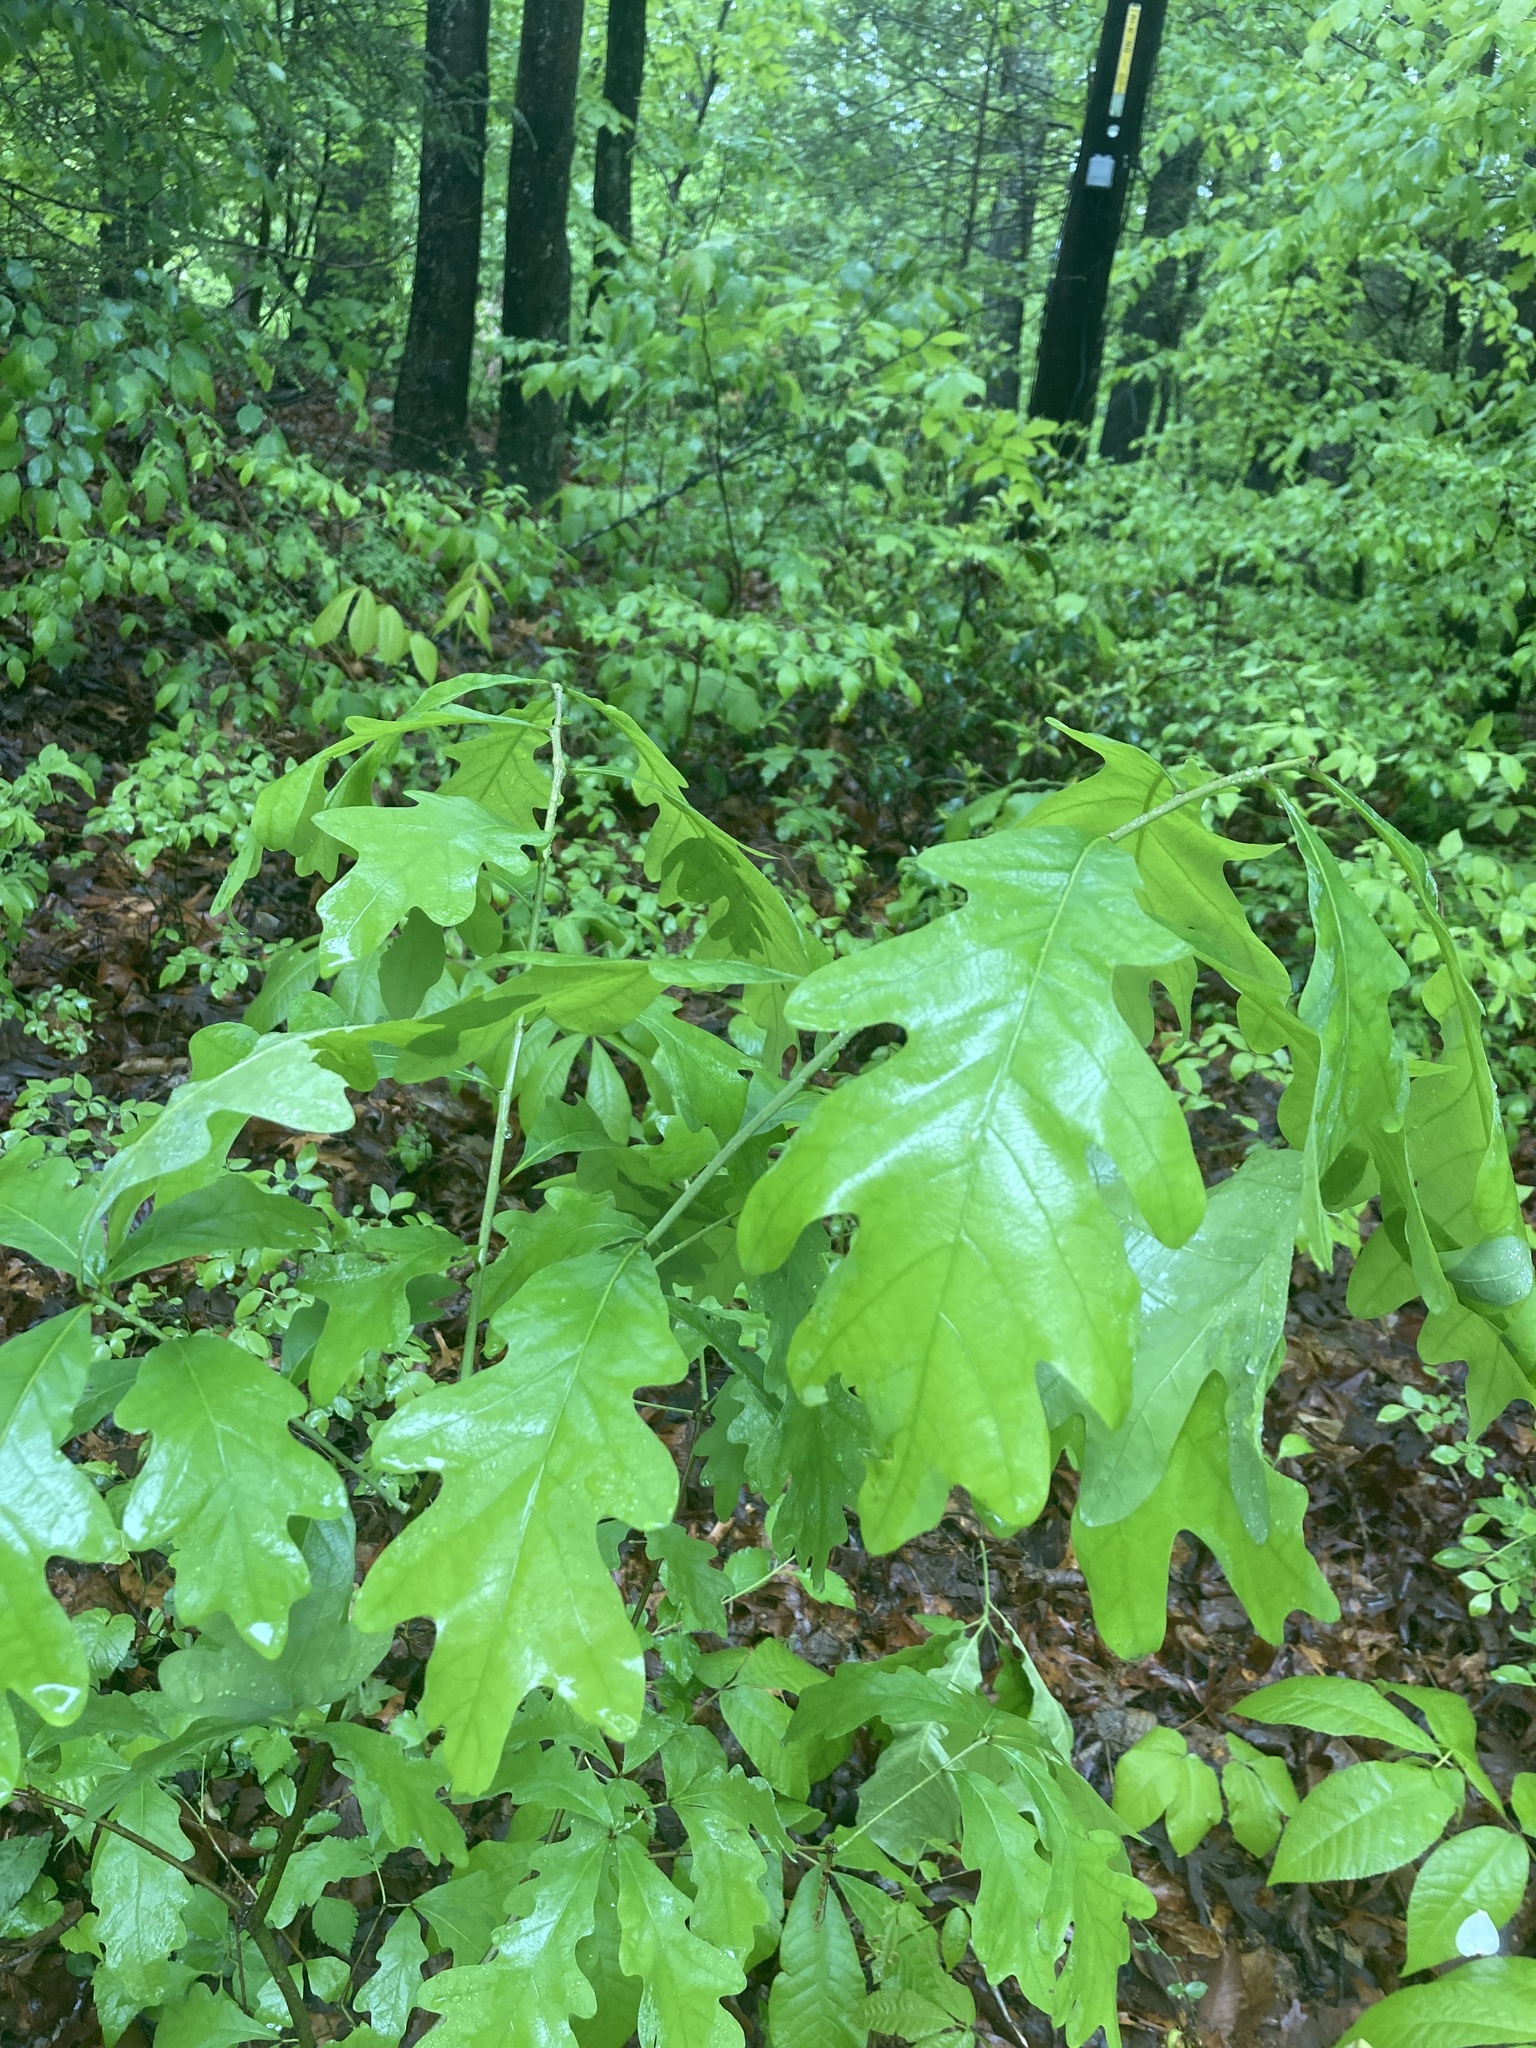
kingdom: Plantae
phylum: Tracheophyta
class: Magnoliopsida
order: Fagales
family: Fagaceae
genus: Quercus
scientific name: Quercus alba
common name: White oak
